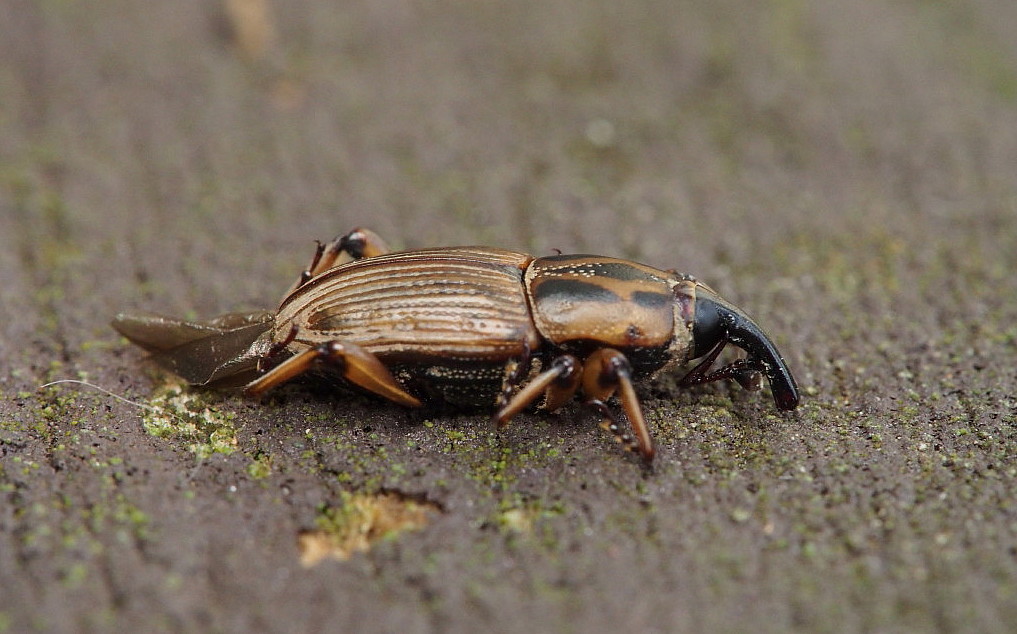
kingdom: Animalia
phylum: Arthropoda
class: Insecta
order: Coleoptera
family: Dryophthoridae
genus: Sphenophorus
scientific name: Sphenophorus brunnipennis
